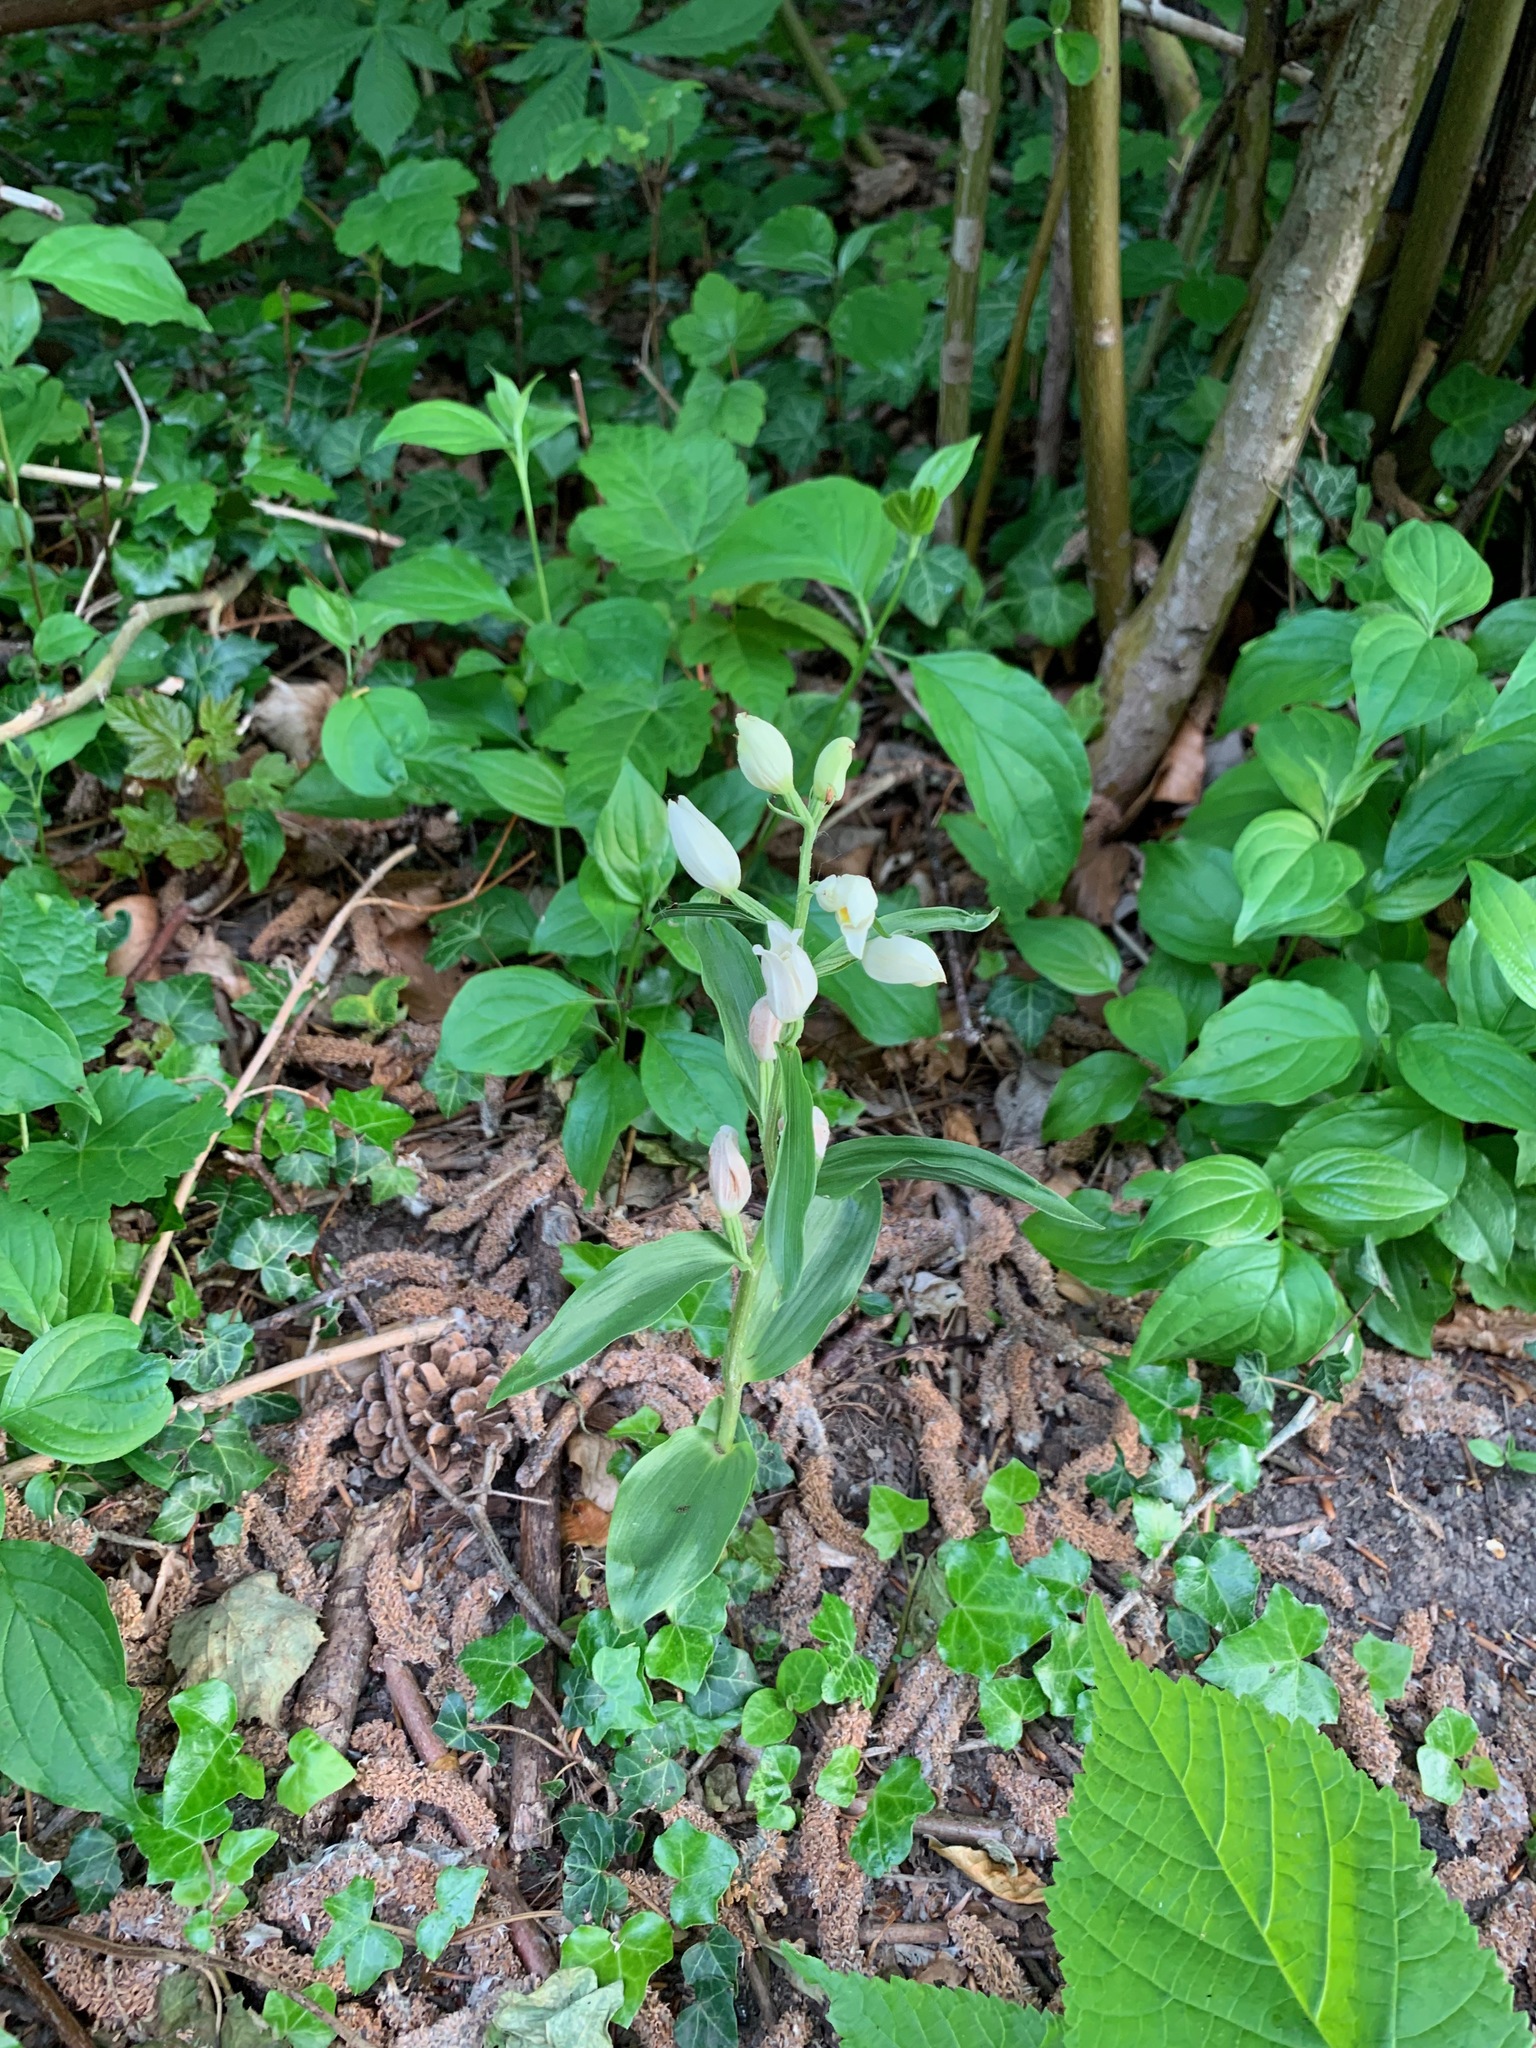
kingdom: Plantae
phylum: Tracheophyta
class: Liliopsida
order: Asparagales
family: Orchidaceae
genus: Cephalanthera
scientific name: Cephalanthera damasonium
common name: White helleborine
